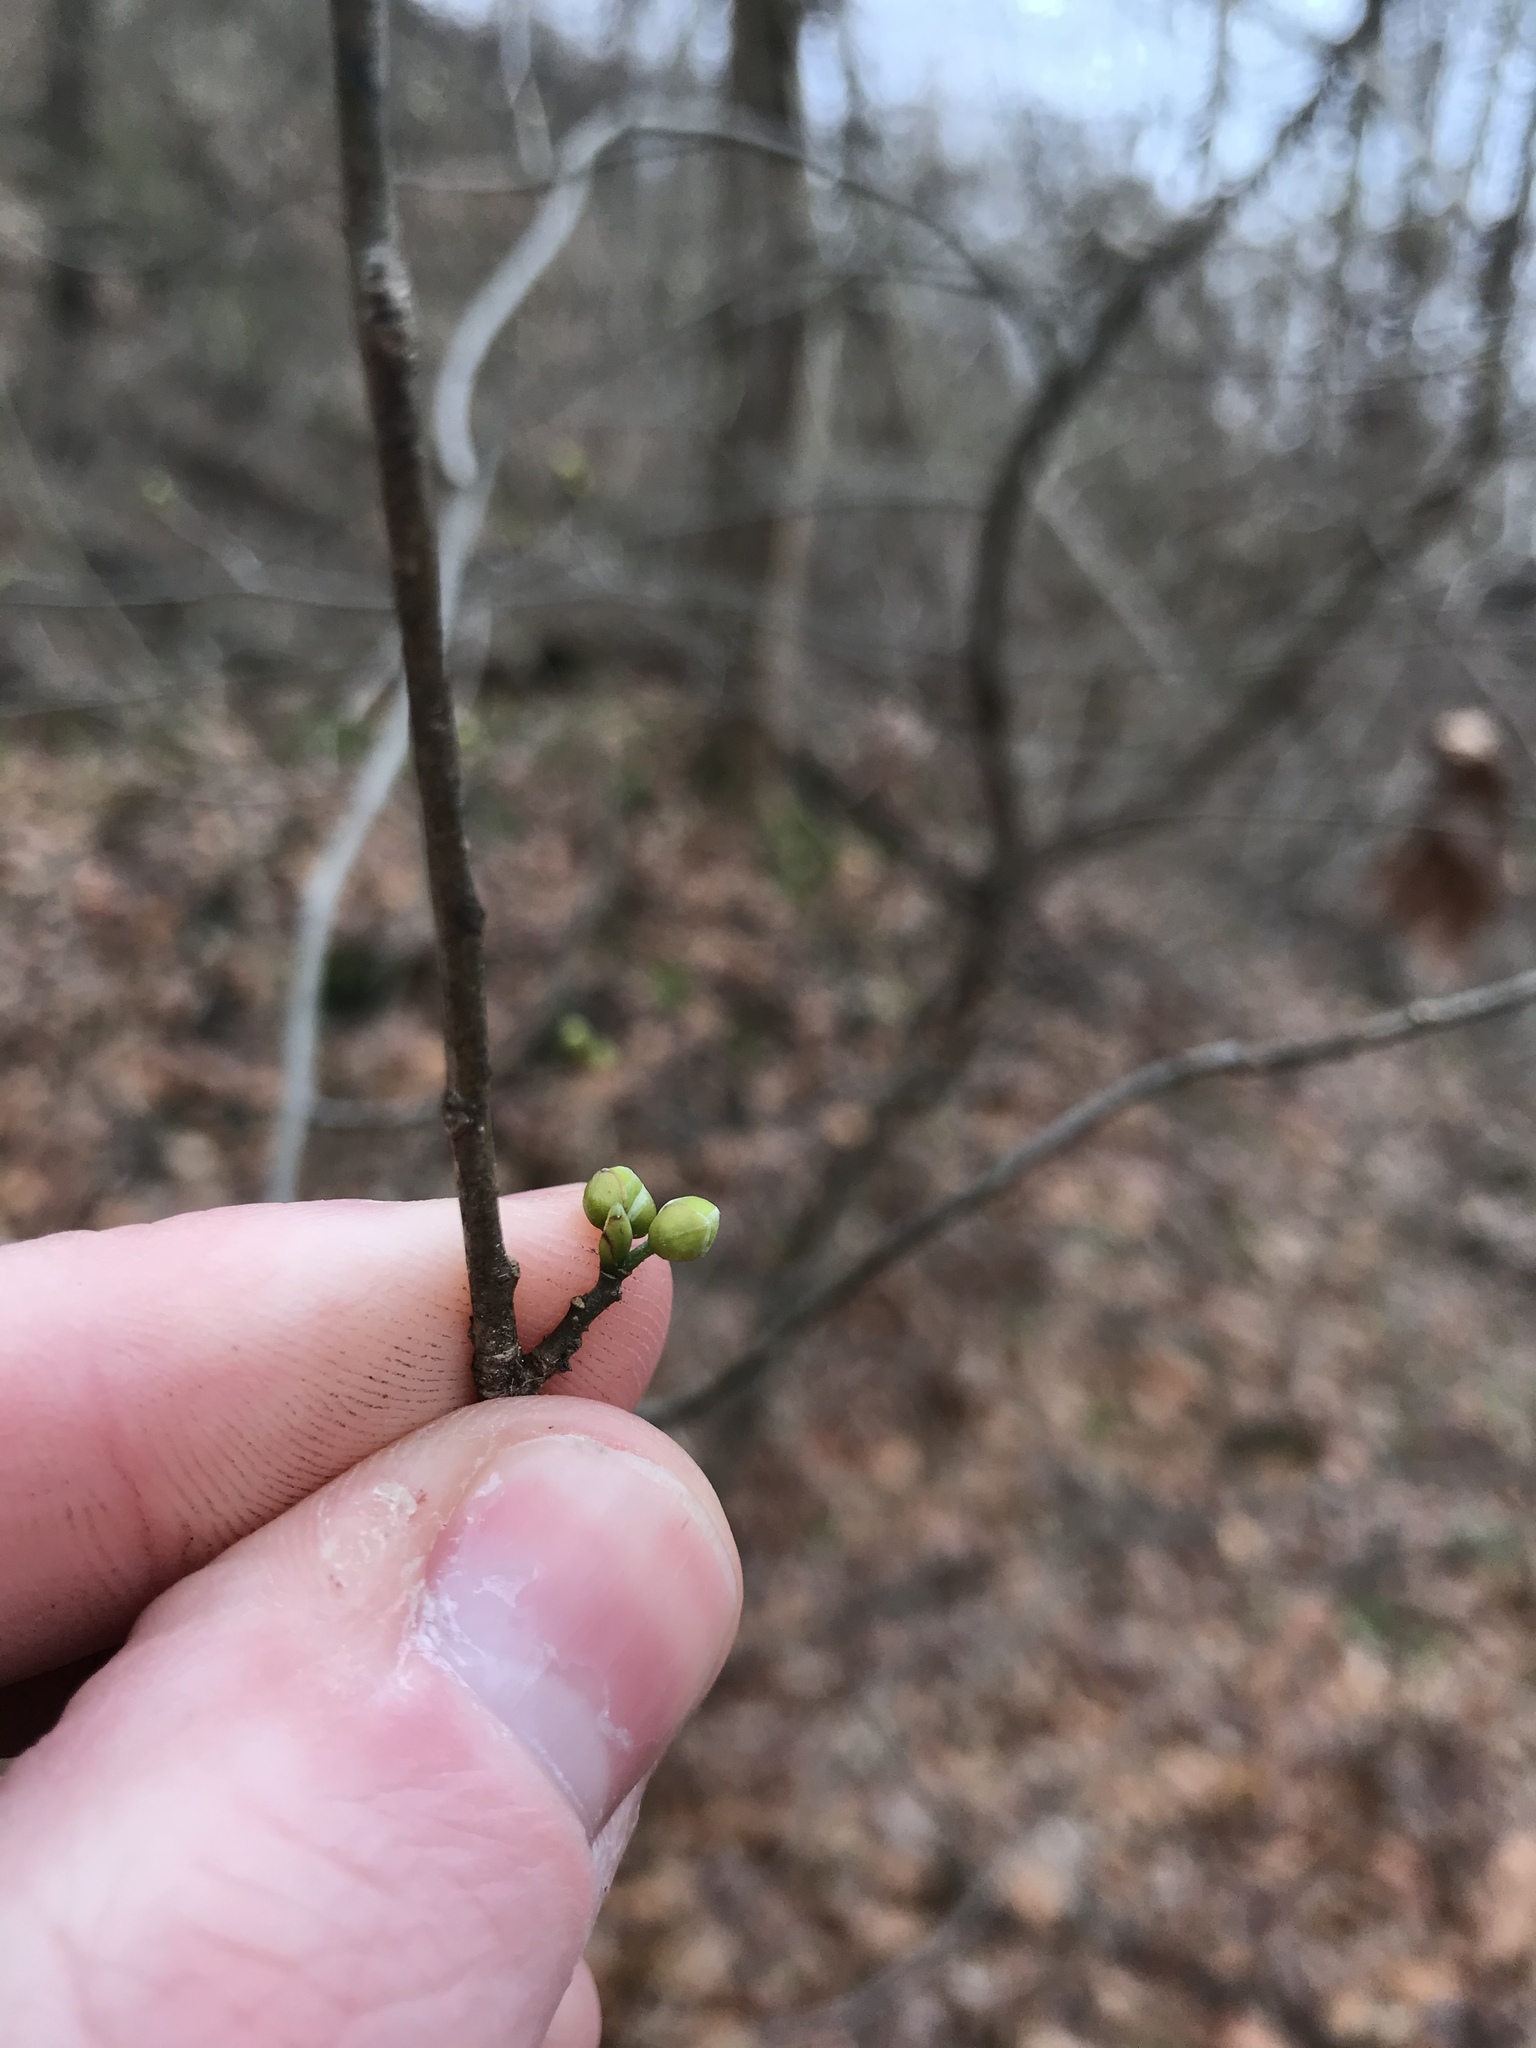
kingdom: Plantae
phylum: Tracheophyta
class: Magnoliopsida
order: Laurales
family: Lauraceae
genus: Lindera
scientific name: Lindera benzoin
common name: Spicebush
